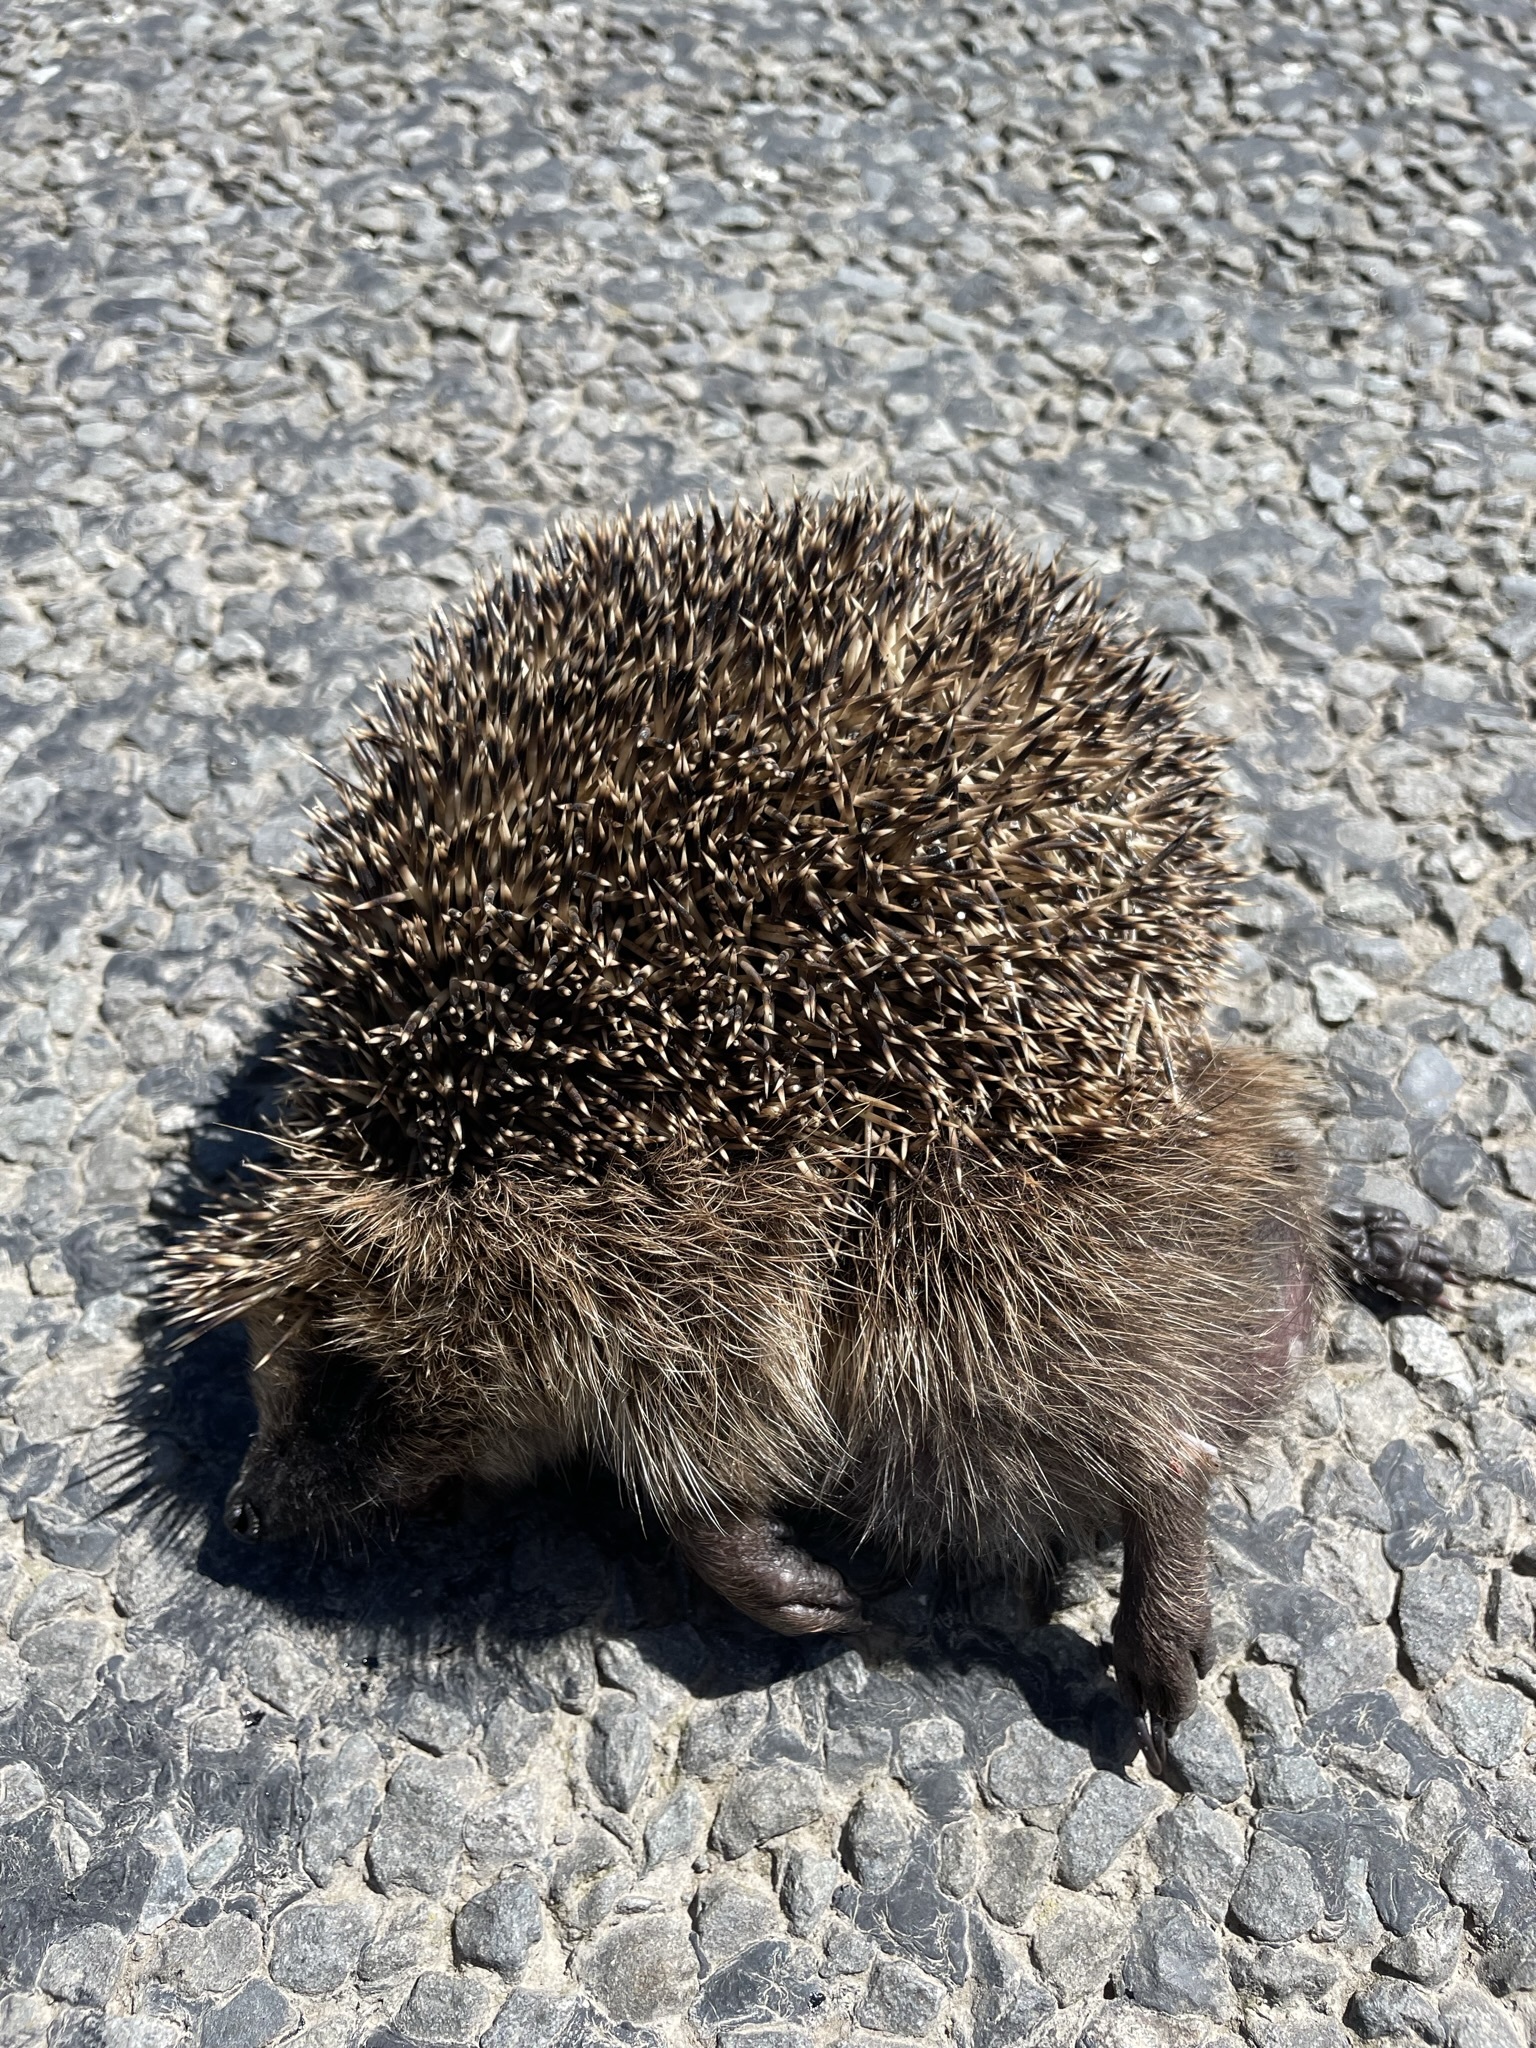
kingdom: Animalia
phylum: Chordata
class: Mammalia
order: Erinaceomorpha
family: Erinaceidae
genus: Erinaceus
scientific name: Erinaceus europaeus
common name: West european hedgehog
